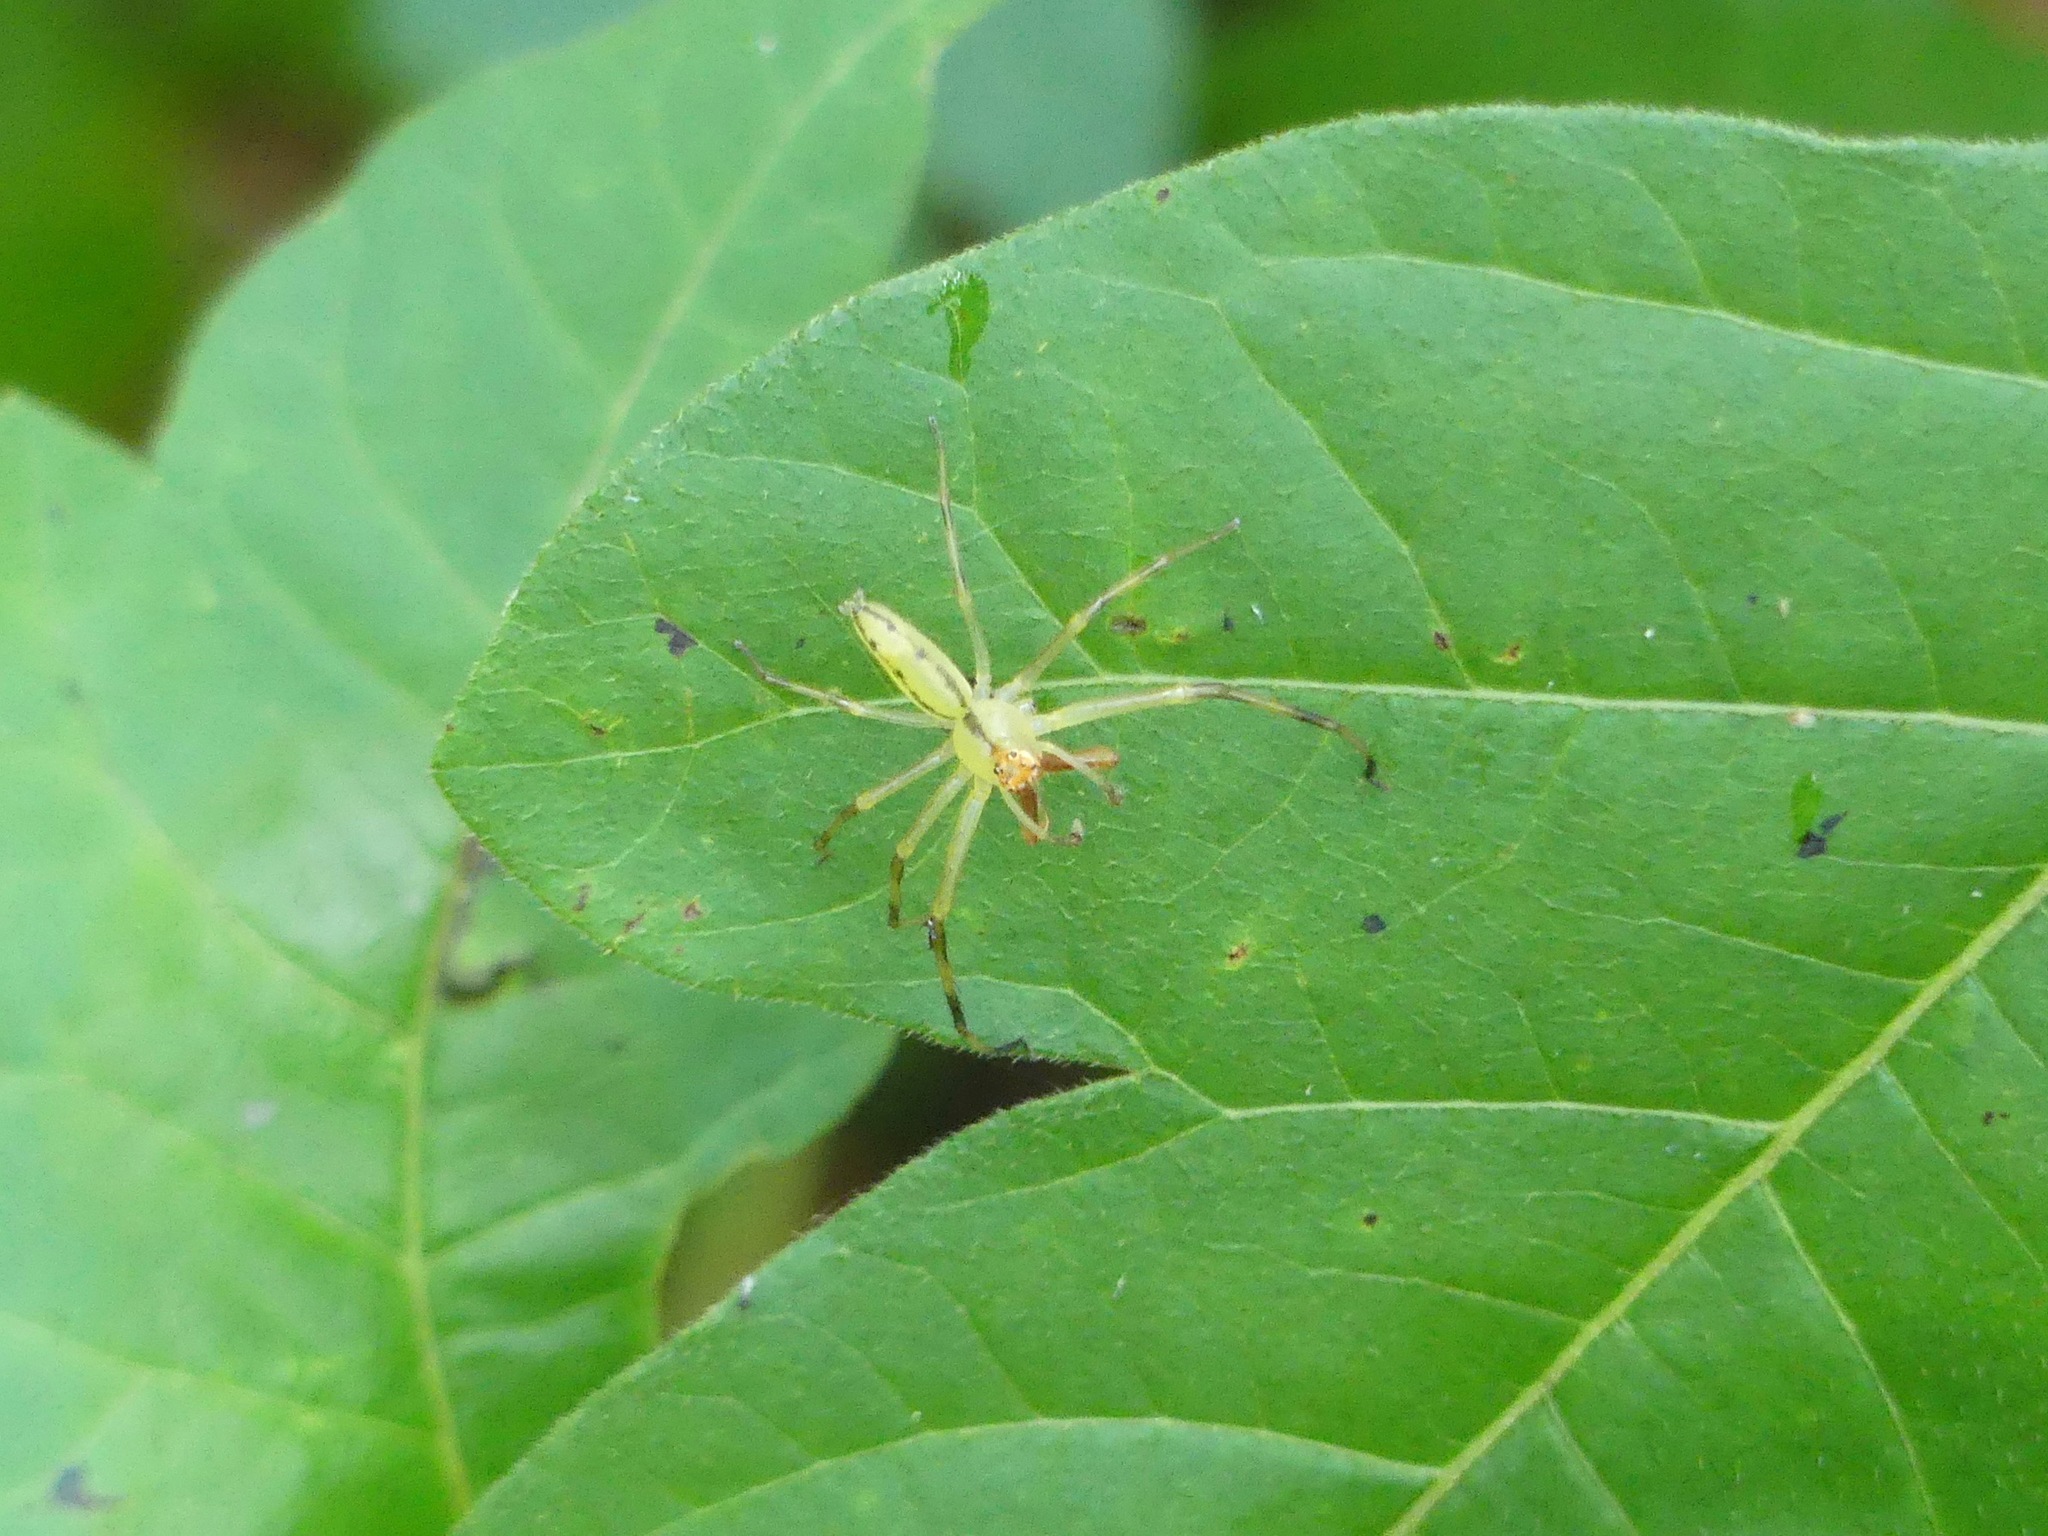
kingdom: Animalia
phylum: Arthropoda
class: Arachnida
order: Araneae
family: Salticidae
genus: Lyssomanes
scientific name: Lyssomanes viridis
